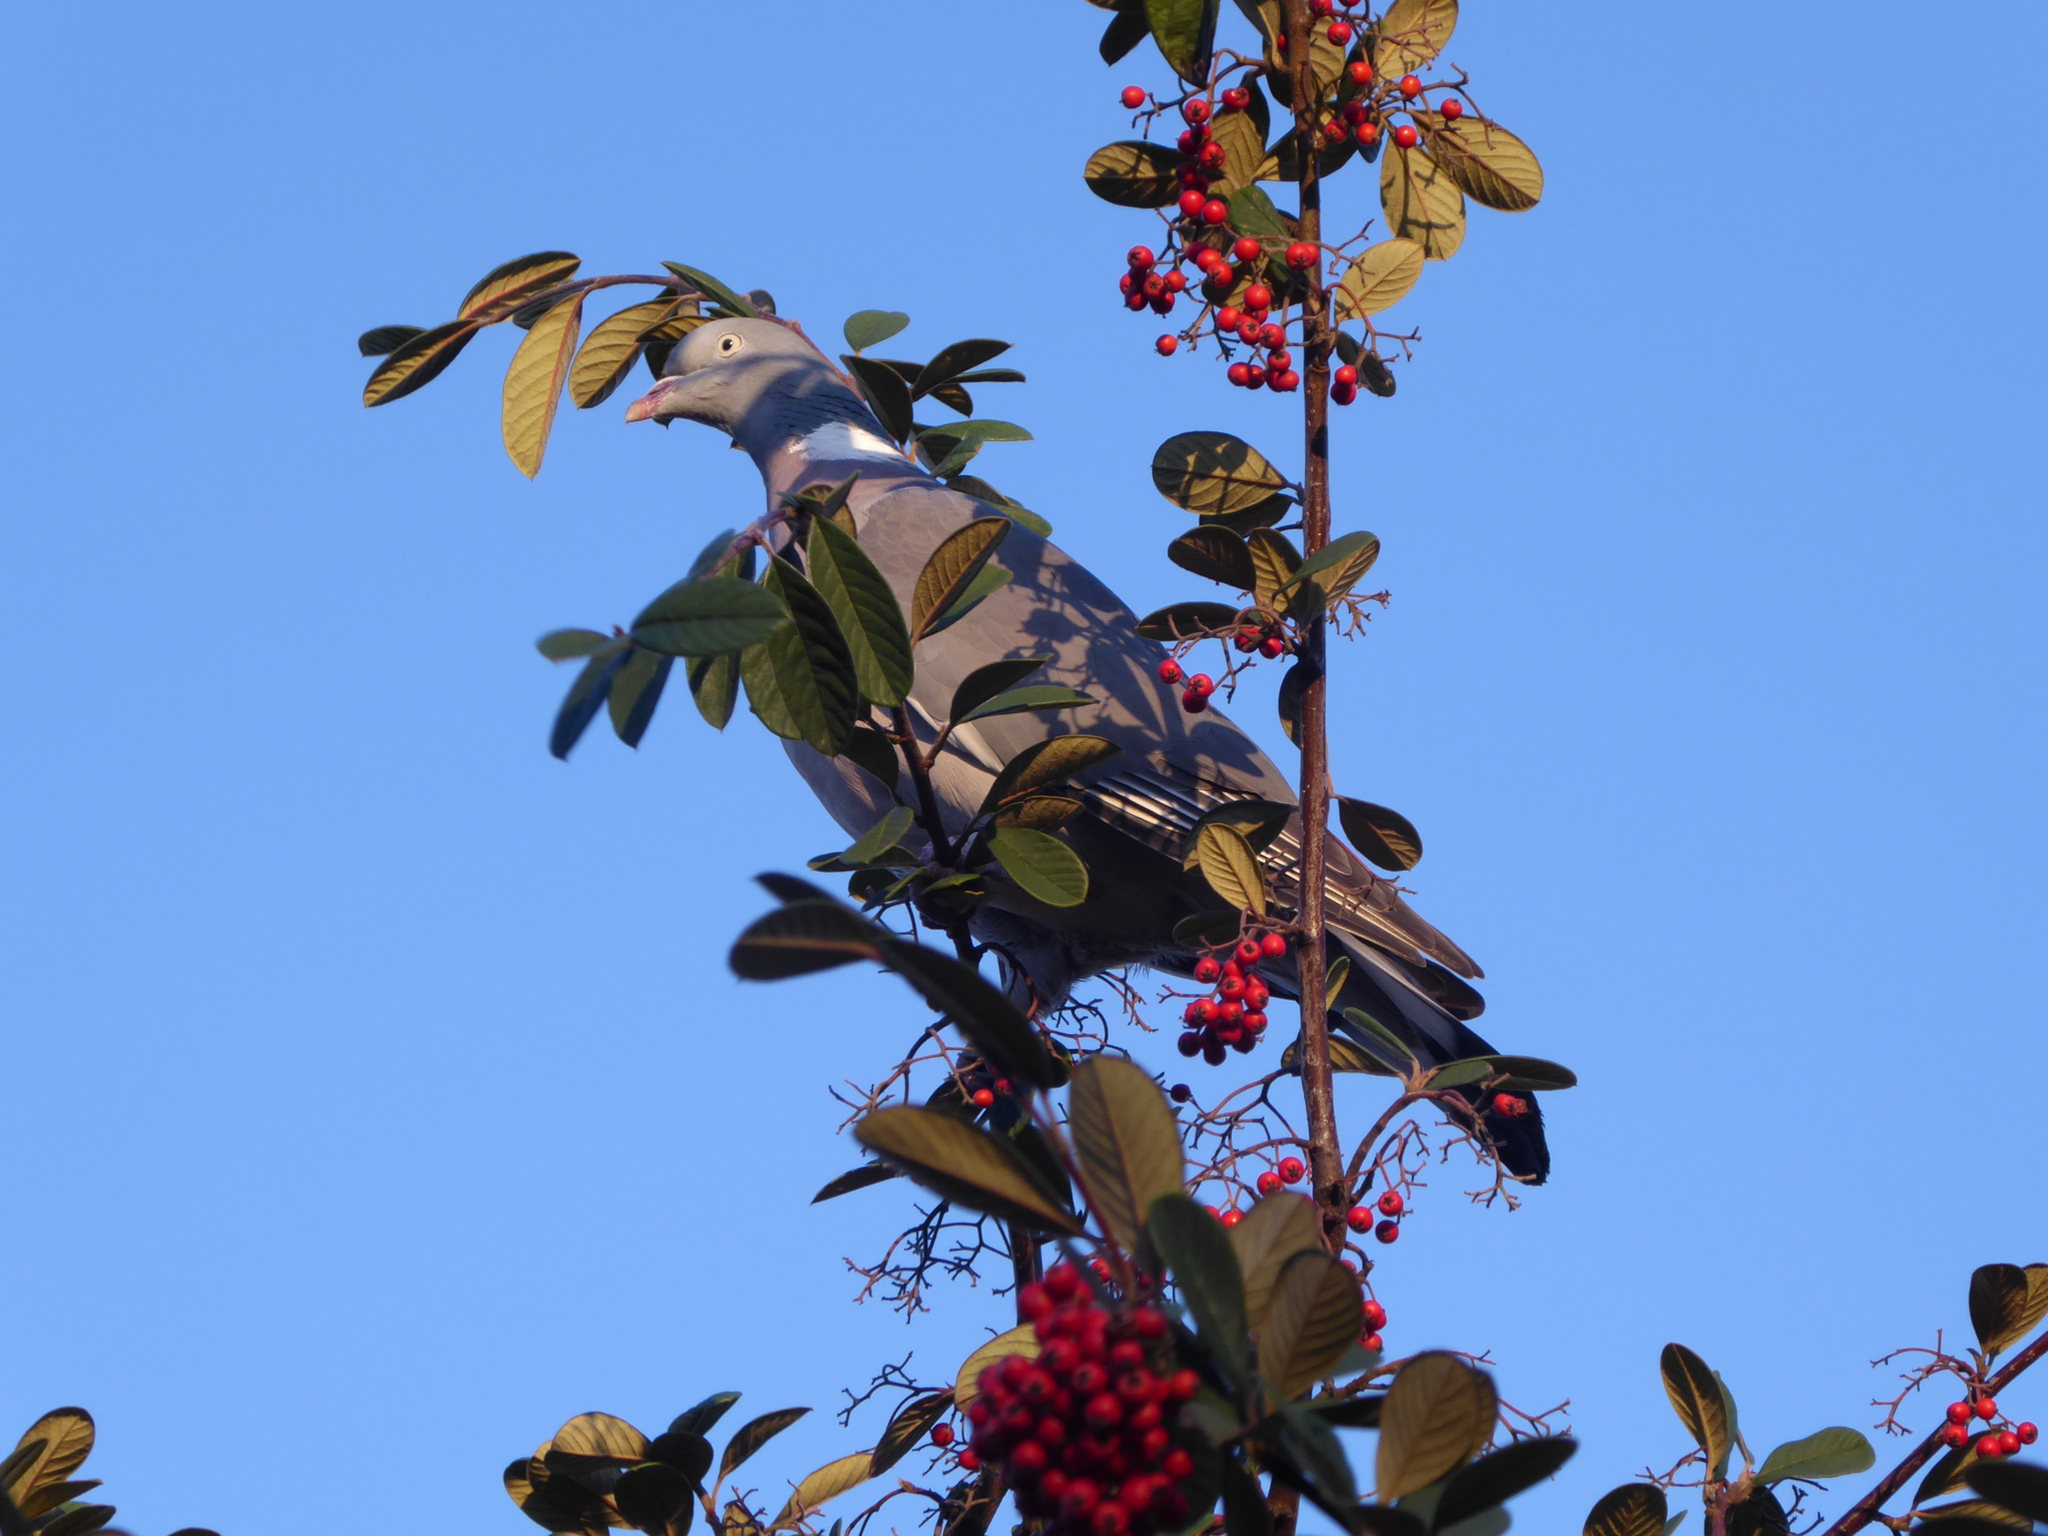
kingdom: Animalia
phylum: Chordata
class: Aves
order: Columbiformes
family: Columbidae
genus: Columba
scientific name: Columba palumbus
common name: Common wood pigeon
